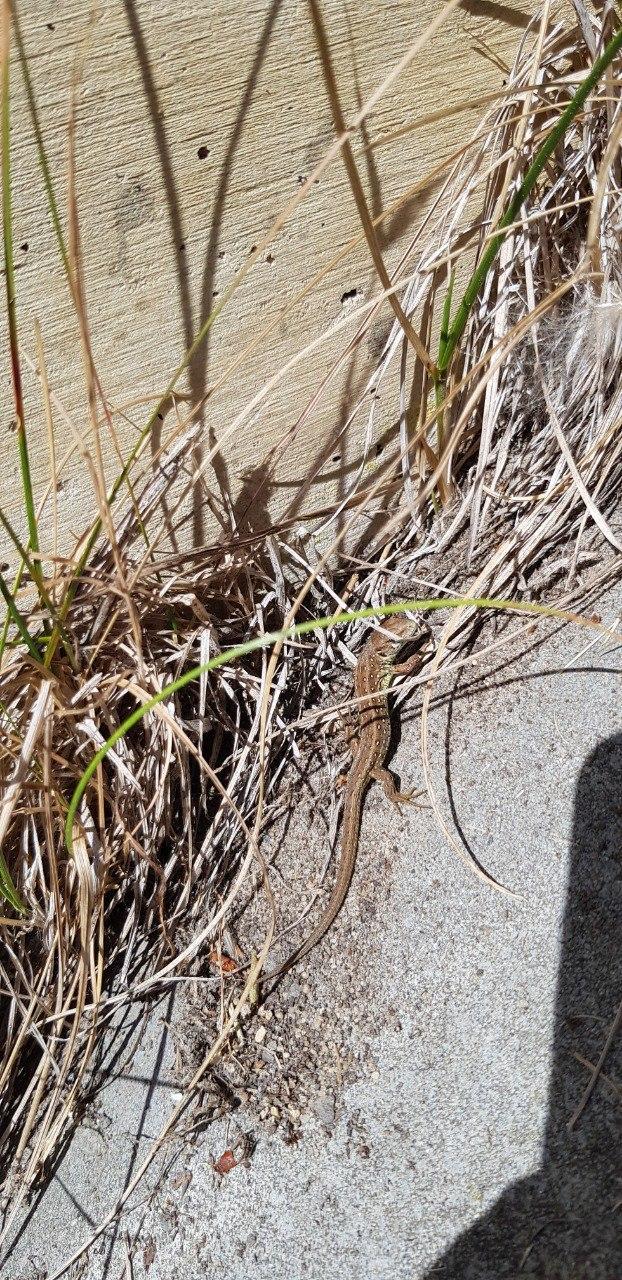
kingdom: Animalia
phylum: Chordata
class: Squamata
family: Lacertidae
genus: Lacerta
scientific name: Lacerta agilis
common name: Sand lizard
